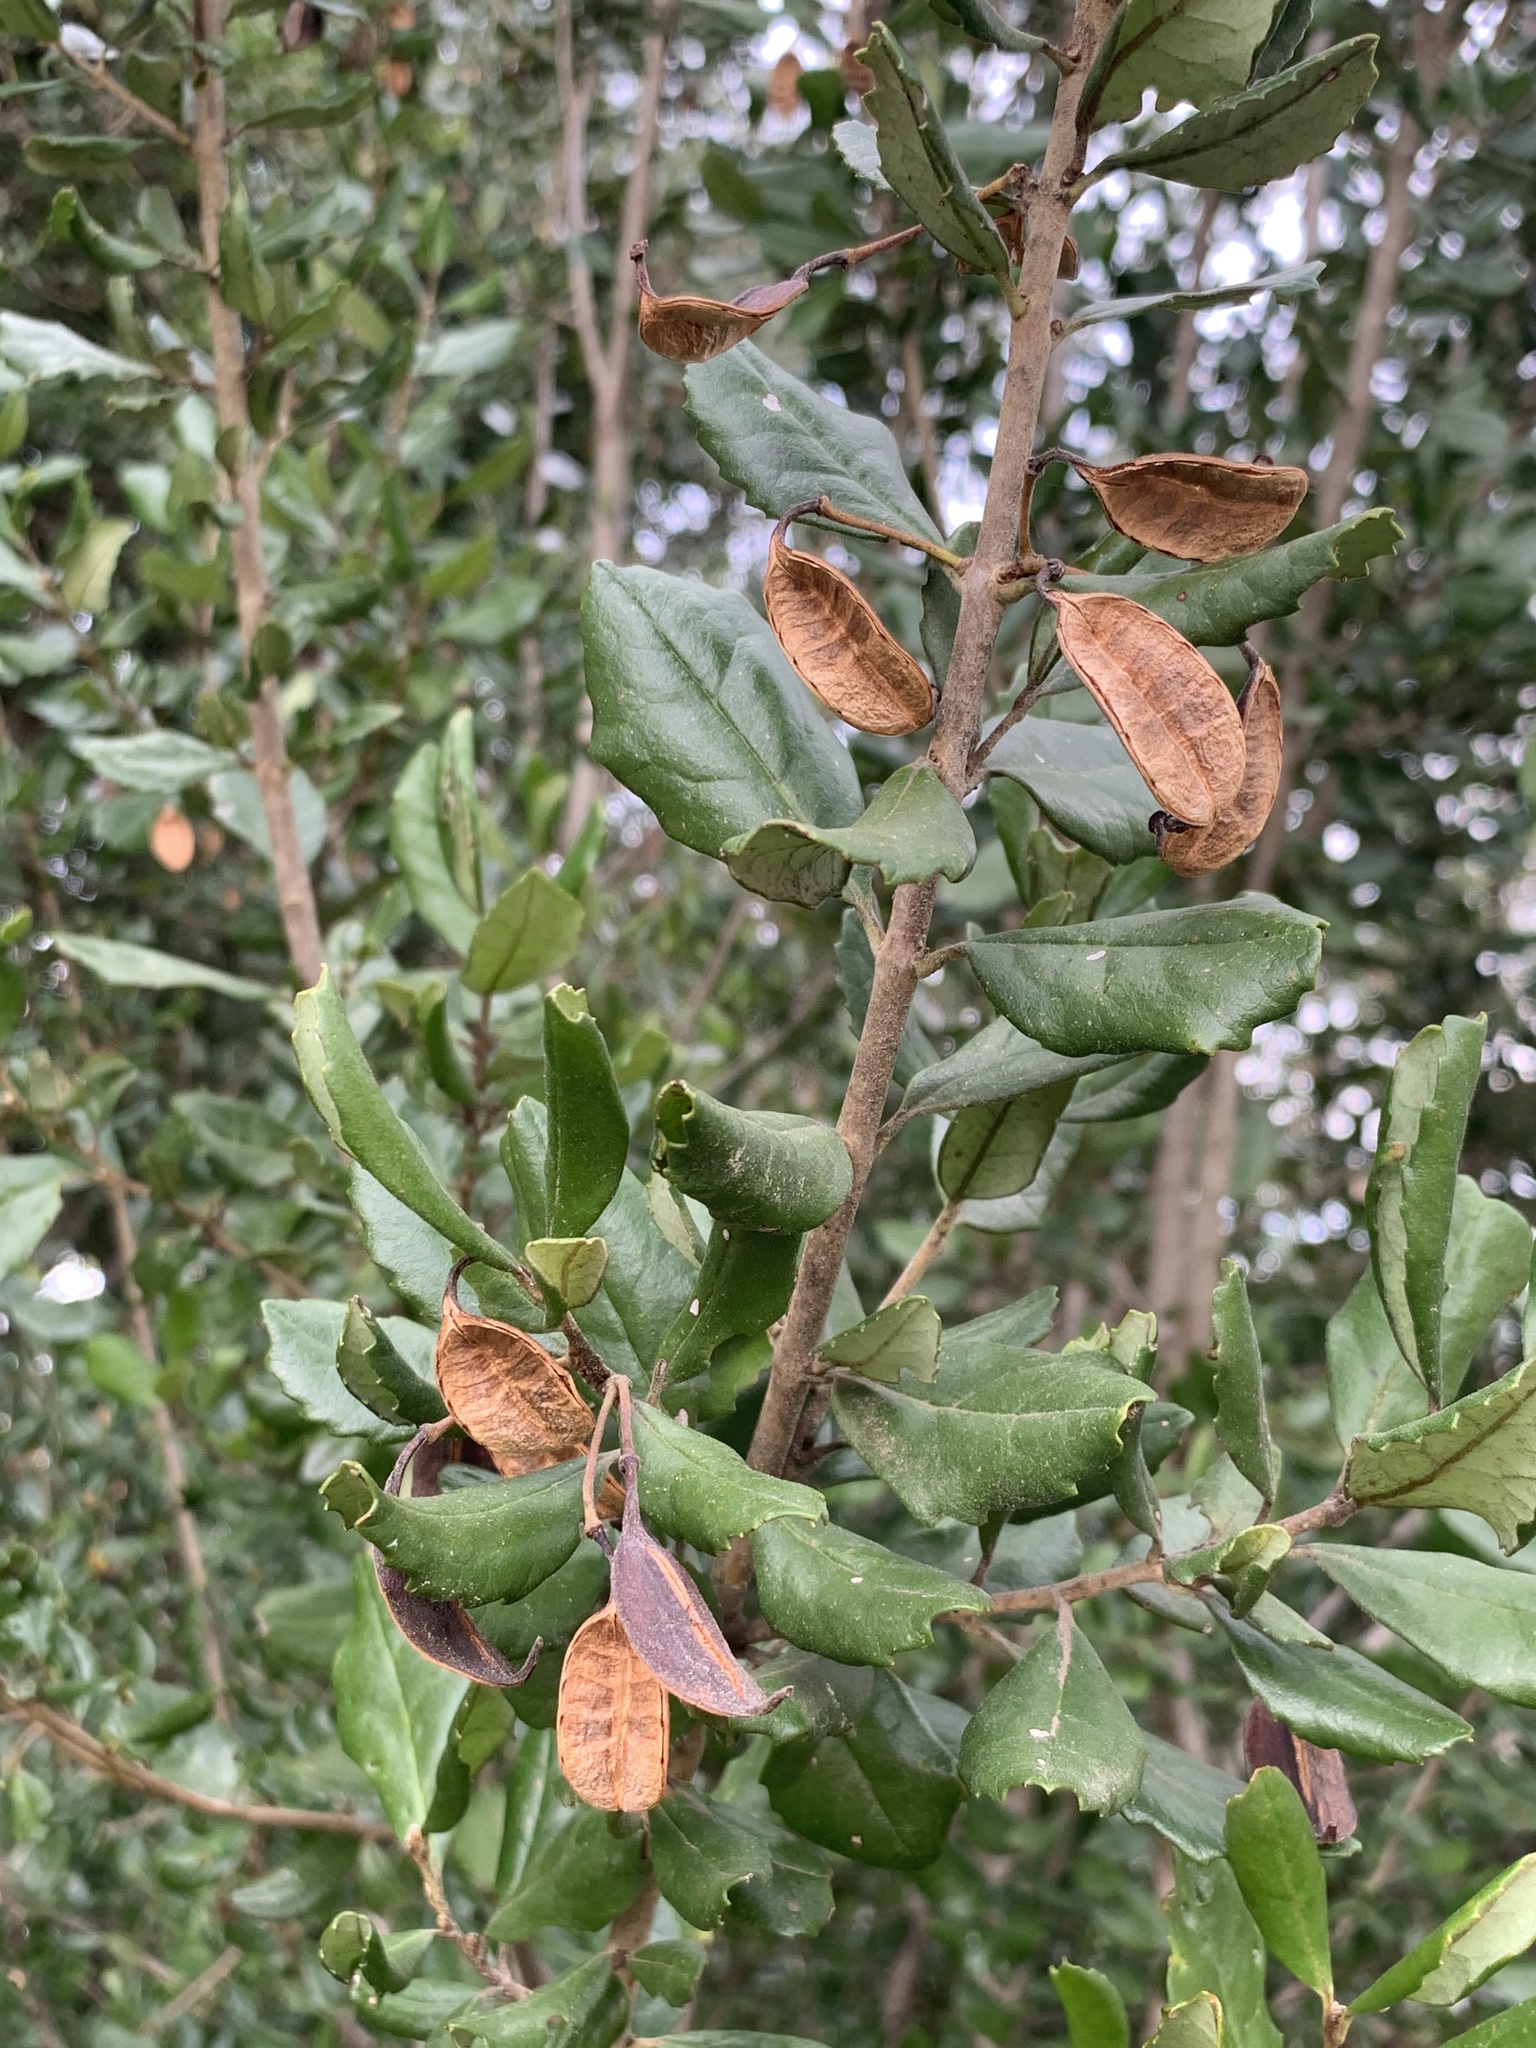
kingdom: Plantae
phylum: Tracheophyta
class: Magnoliopsida
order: Proteales
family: Proteaceae
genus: Lomatia
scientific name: Lomatia dentata
